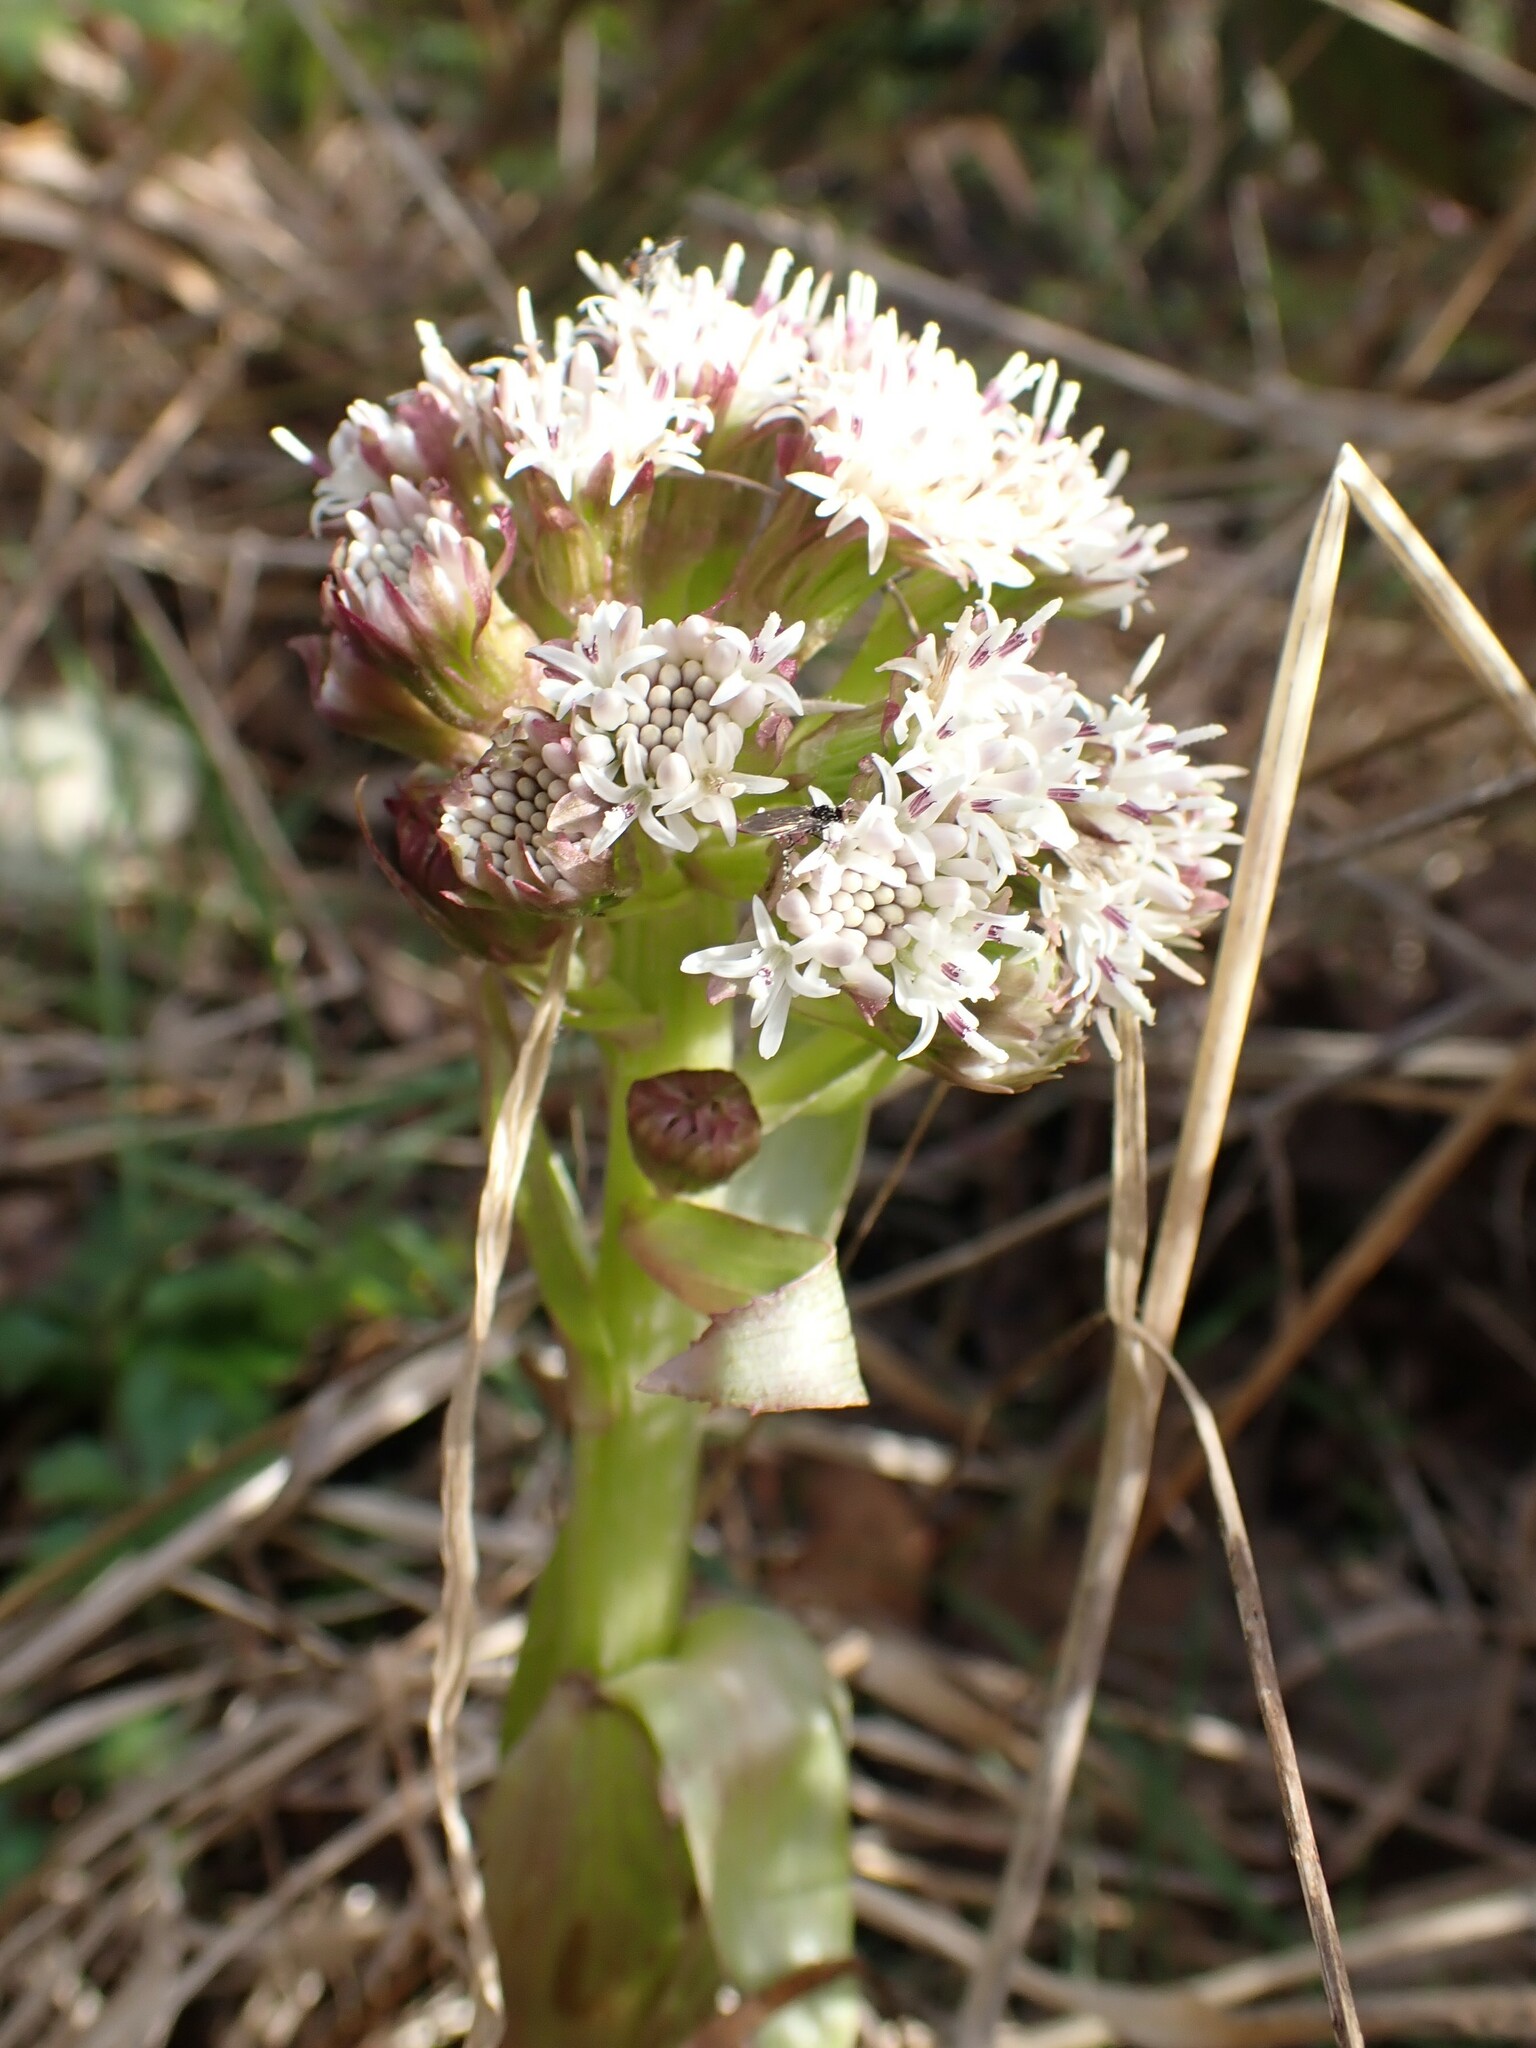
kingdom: Plantae
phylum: Tracheophyta
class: Magnoliopsida
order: Asterales
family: Asteraceae
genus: Petasites
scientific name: Petasites frigidus
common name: Arctic butterbur
